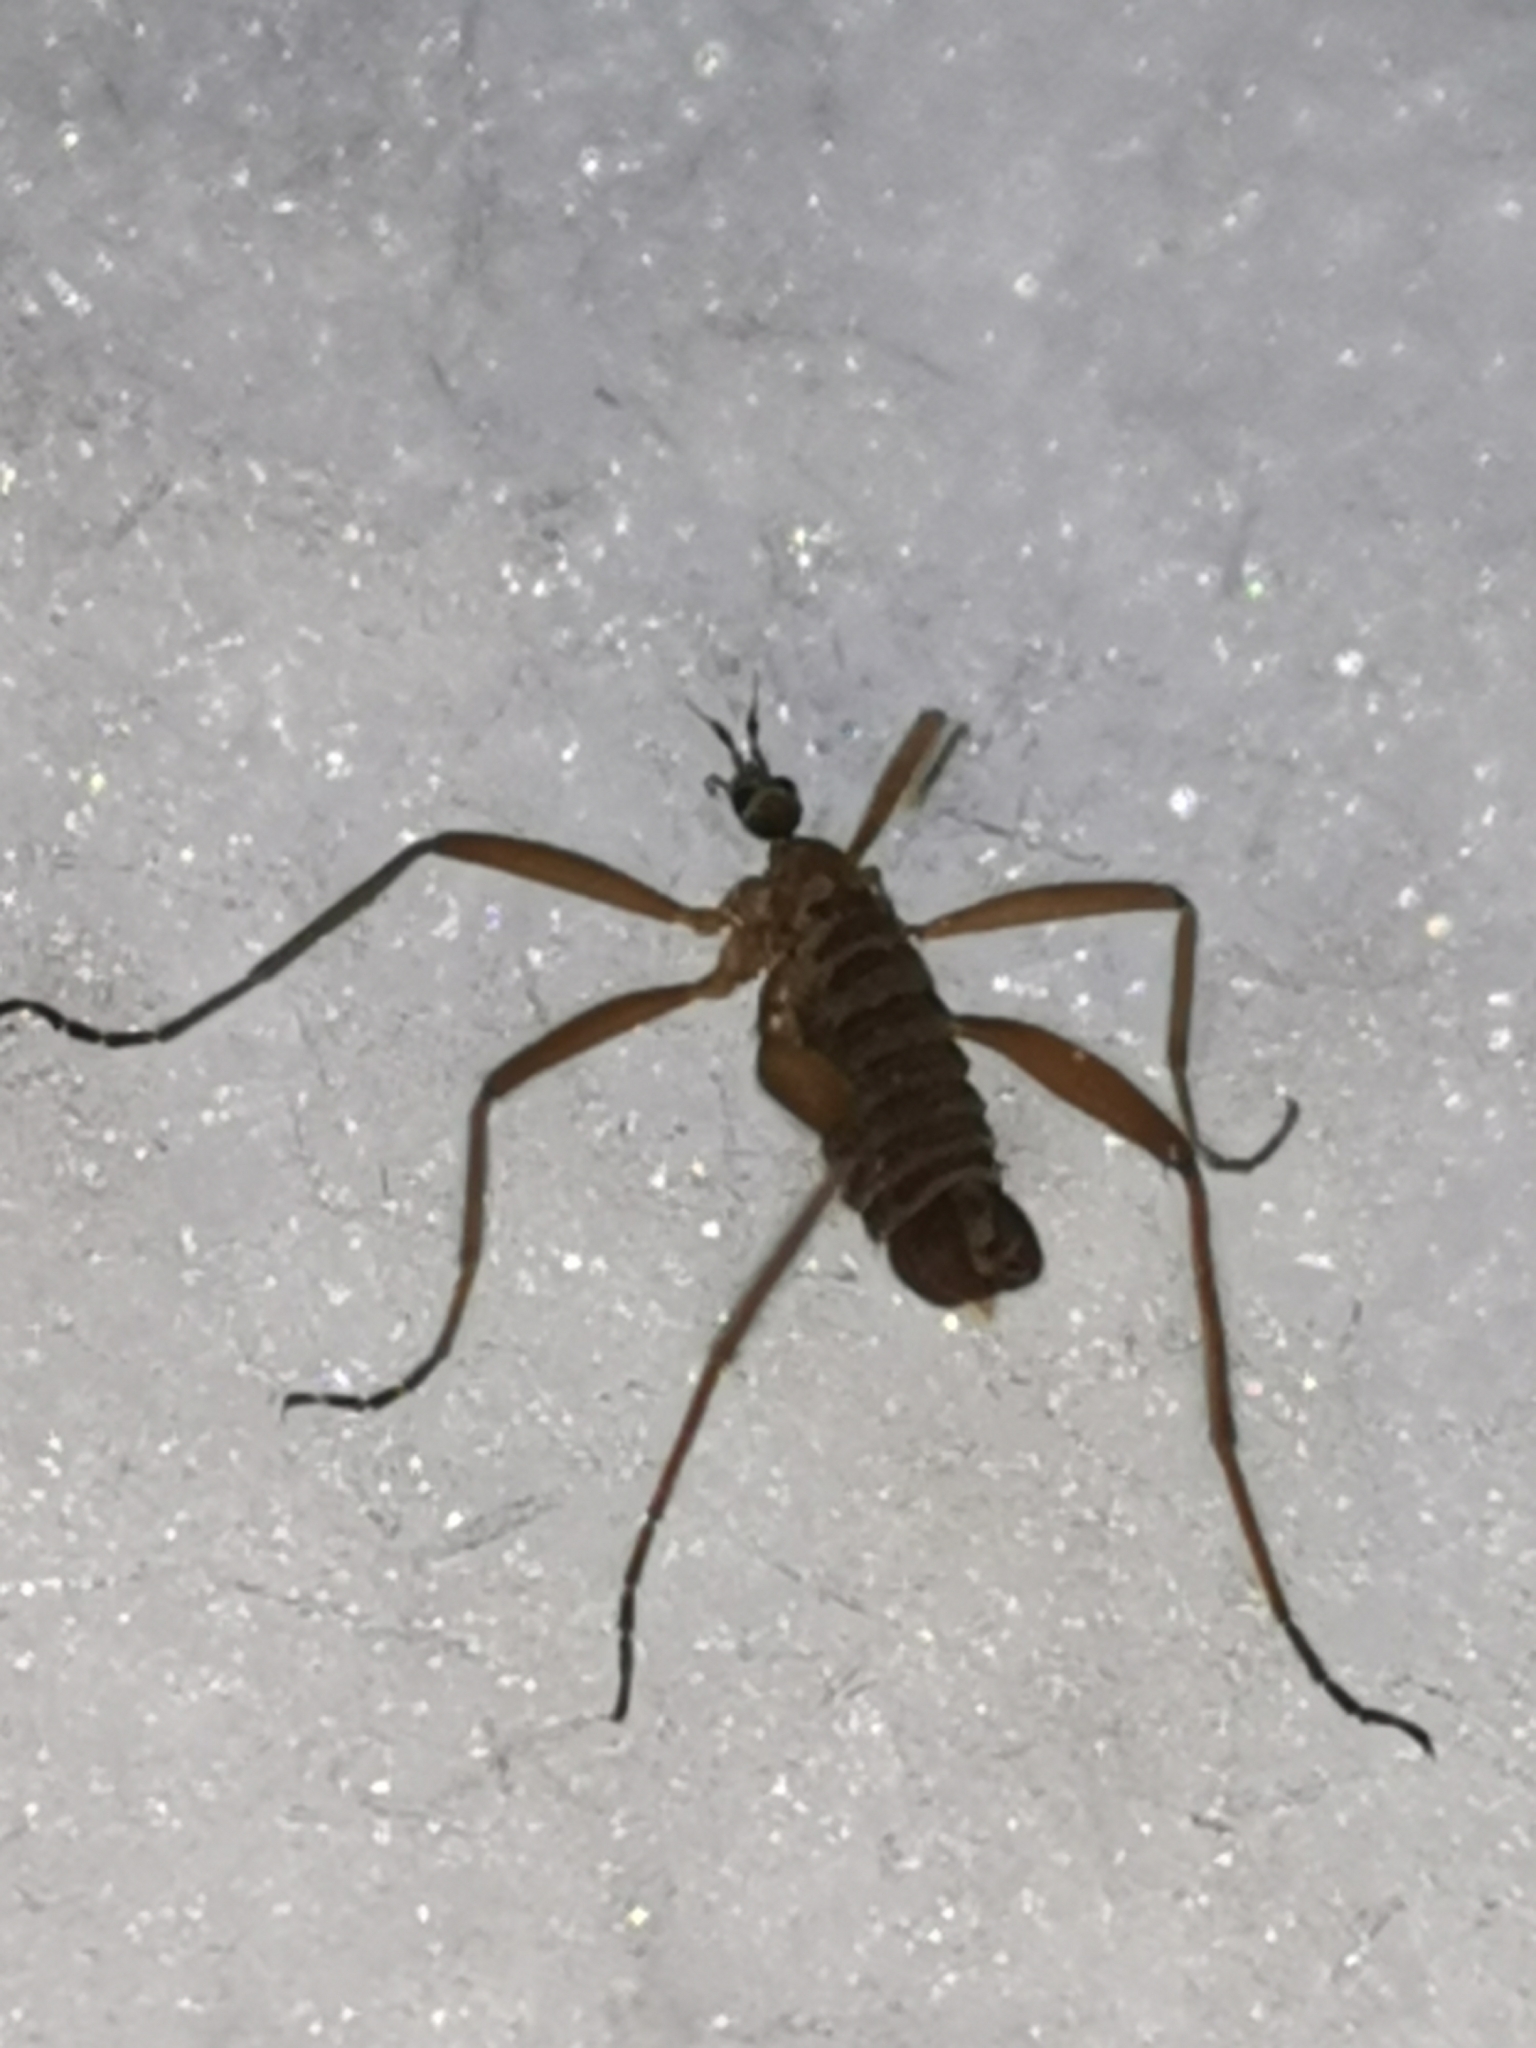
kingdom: Animalia
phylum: Arthropoda
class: Insecta
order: Diptera
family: Limoniidae
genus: Chionea
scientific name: Chionea lutescens
